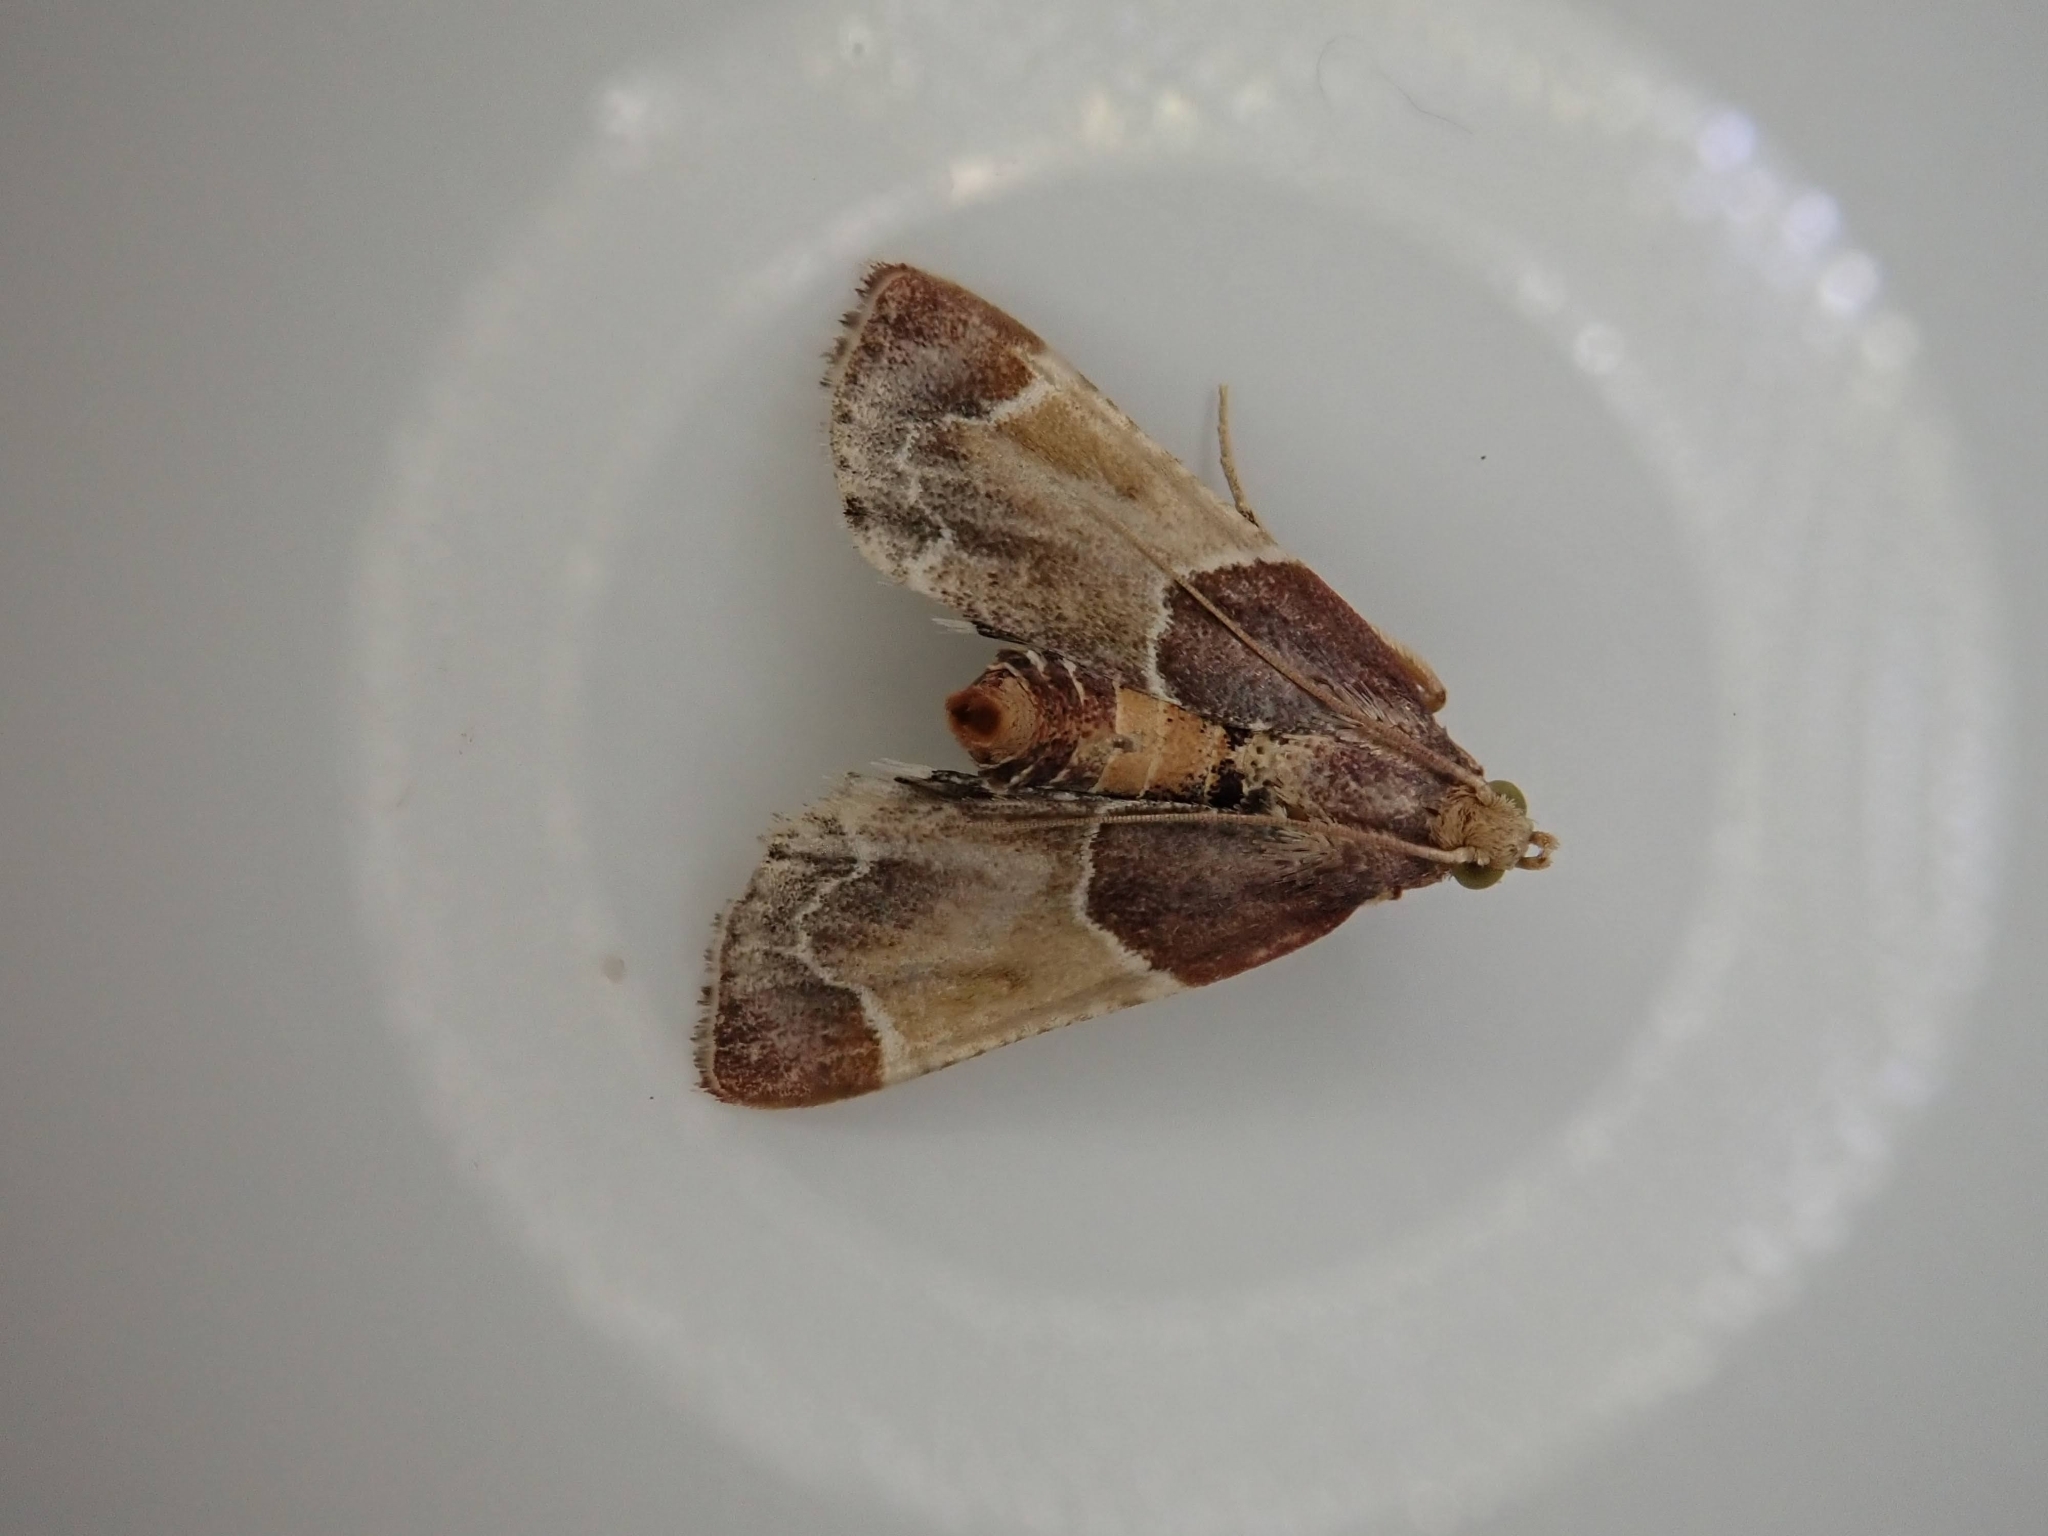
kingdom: Animalia
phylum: Arthropoda
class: Insecta
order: Lepidoptera
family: Pyralidae
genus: Pyralis
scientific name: Pyralis farinalis
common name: Meal moth
